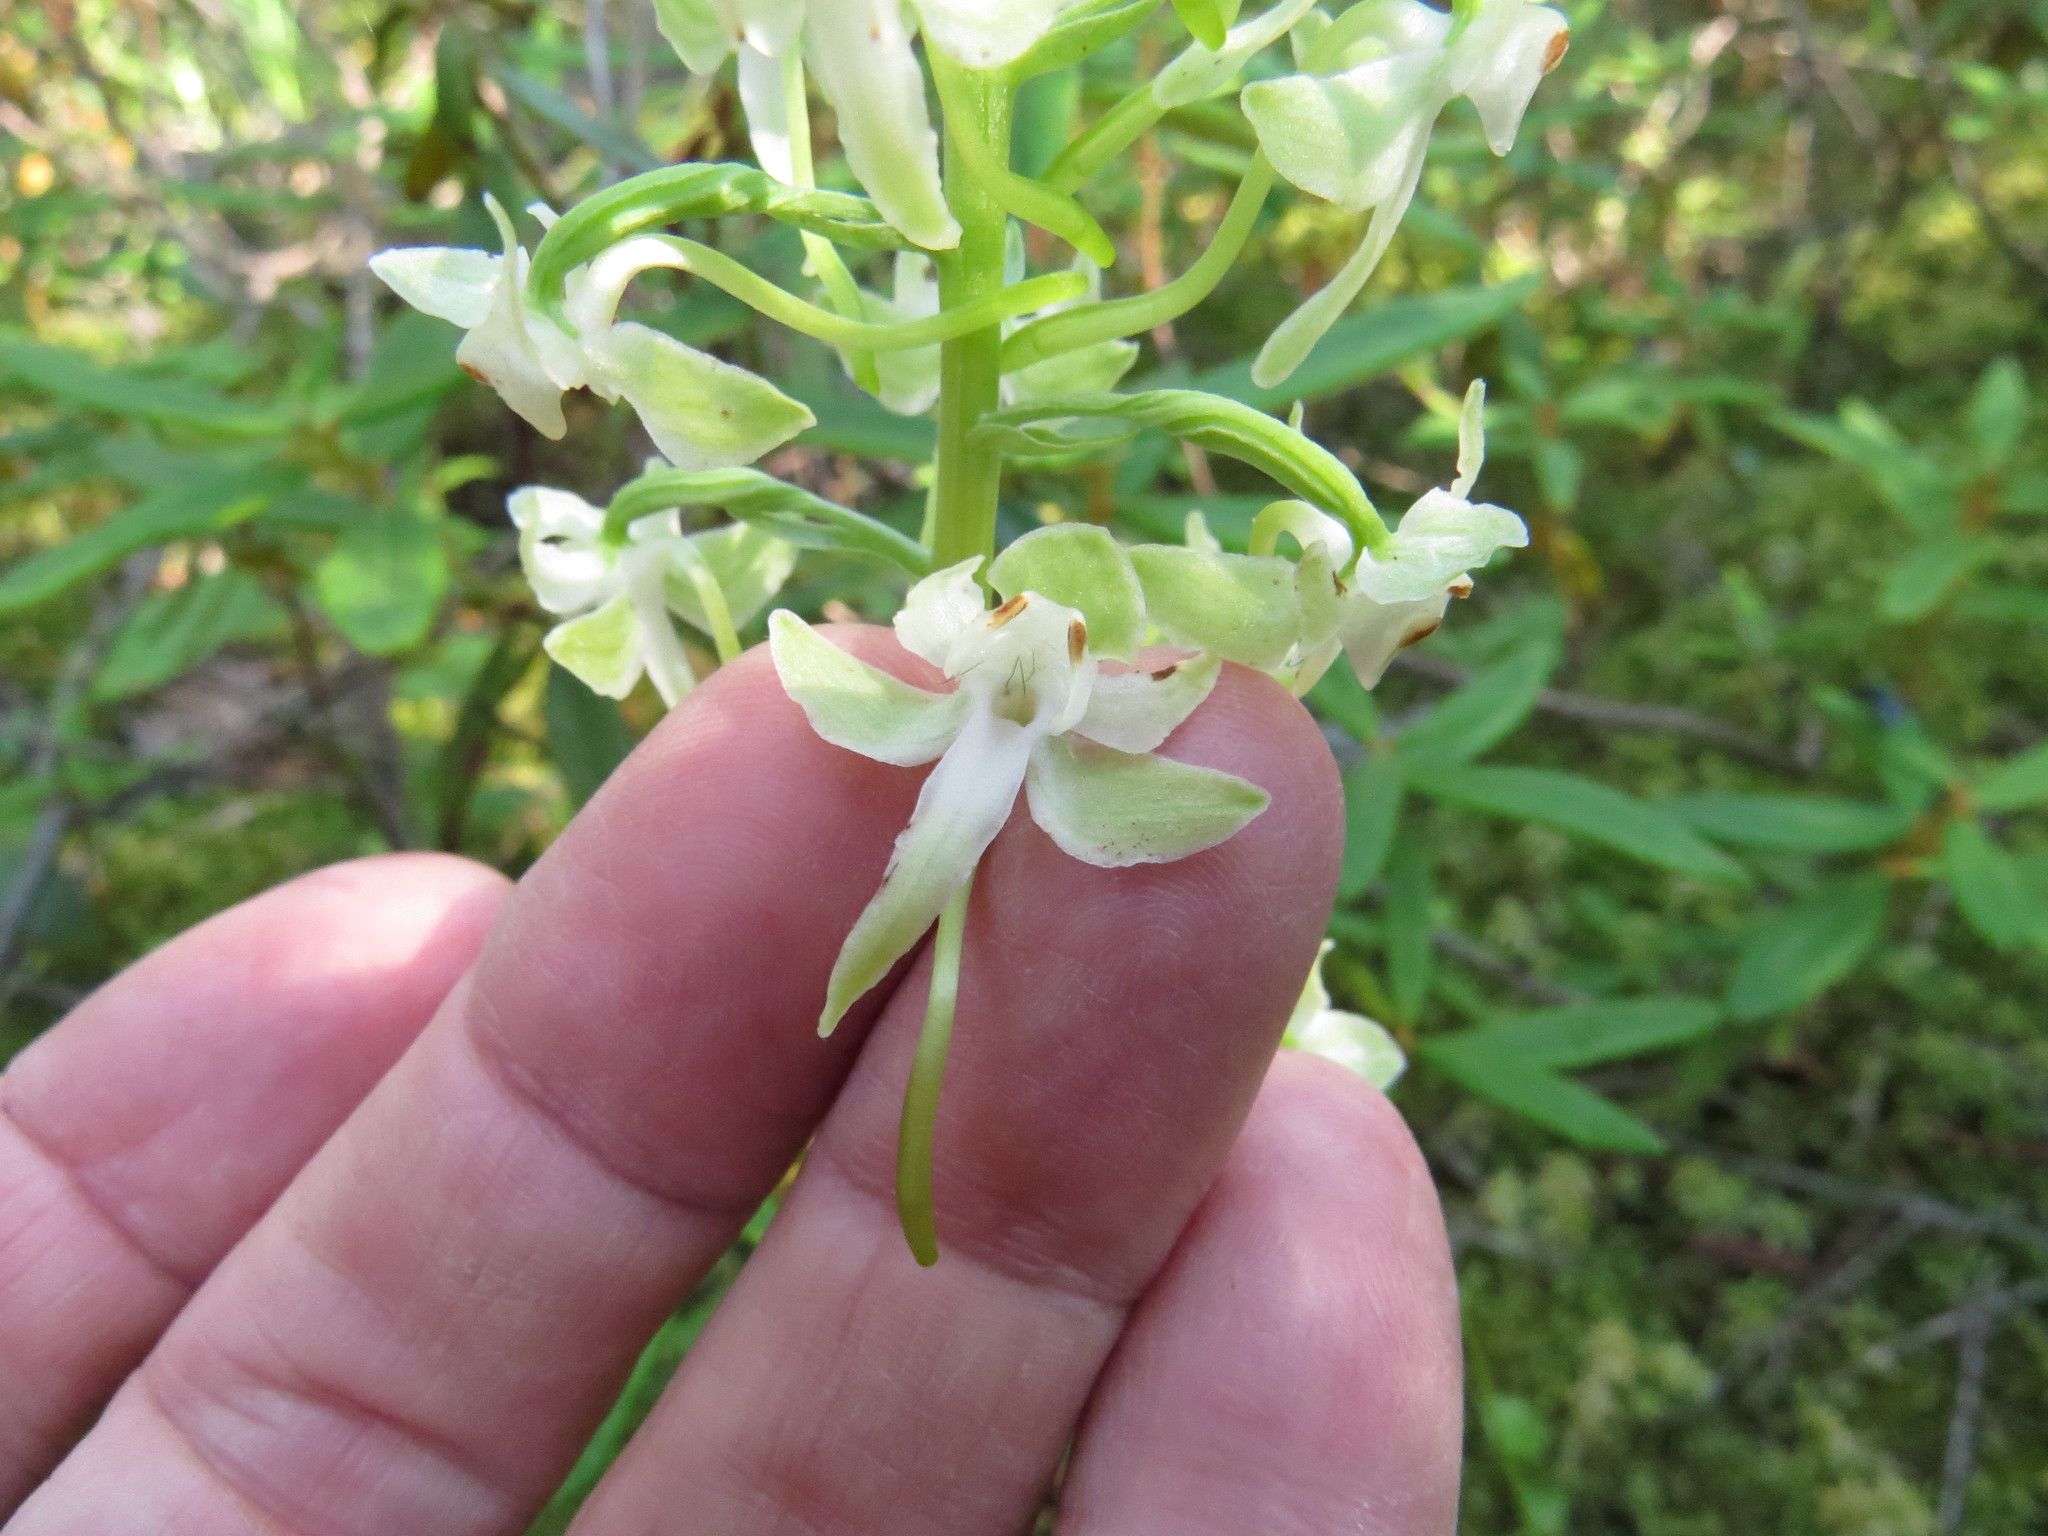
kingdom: Plantae
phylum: Tracheophyta
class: Liliopsida
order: Asparagales
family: Orchidaceae
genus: Platanthera
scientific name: Platanthera orbiculata
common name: Large round-leaved orchid
